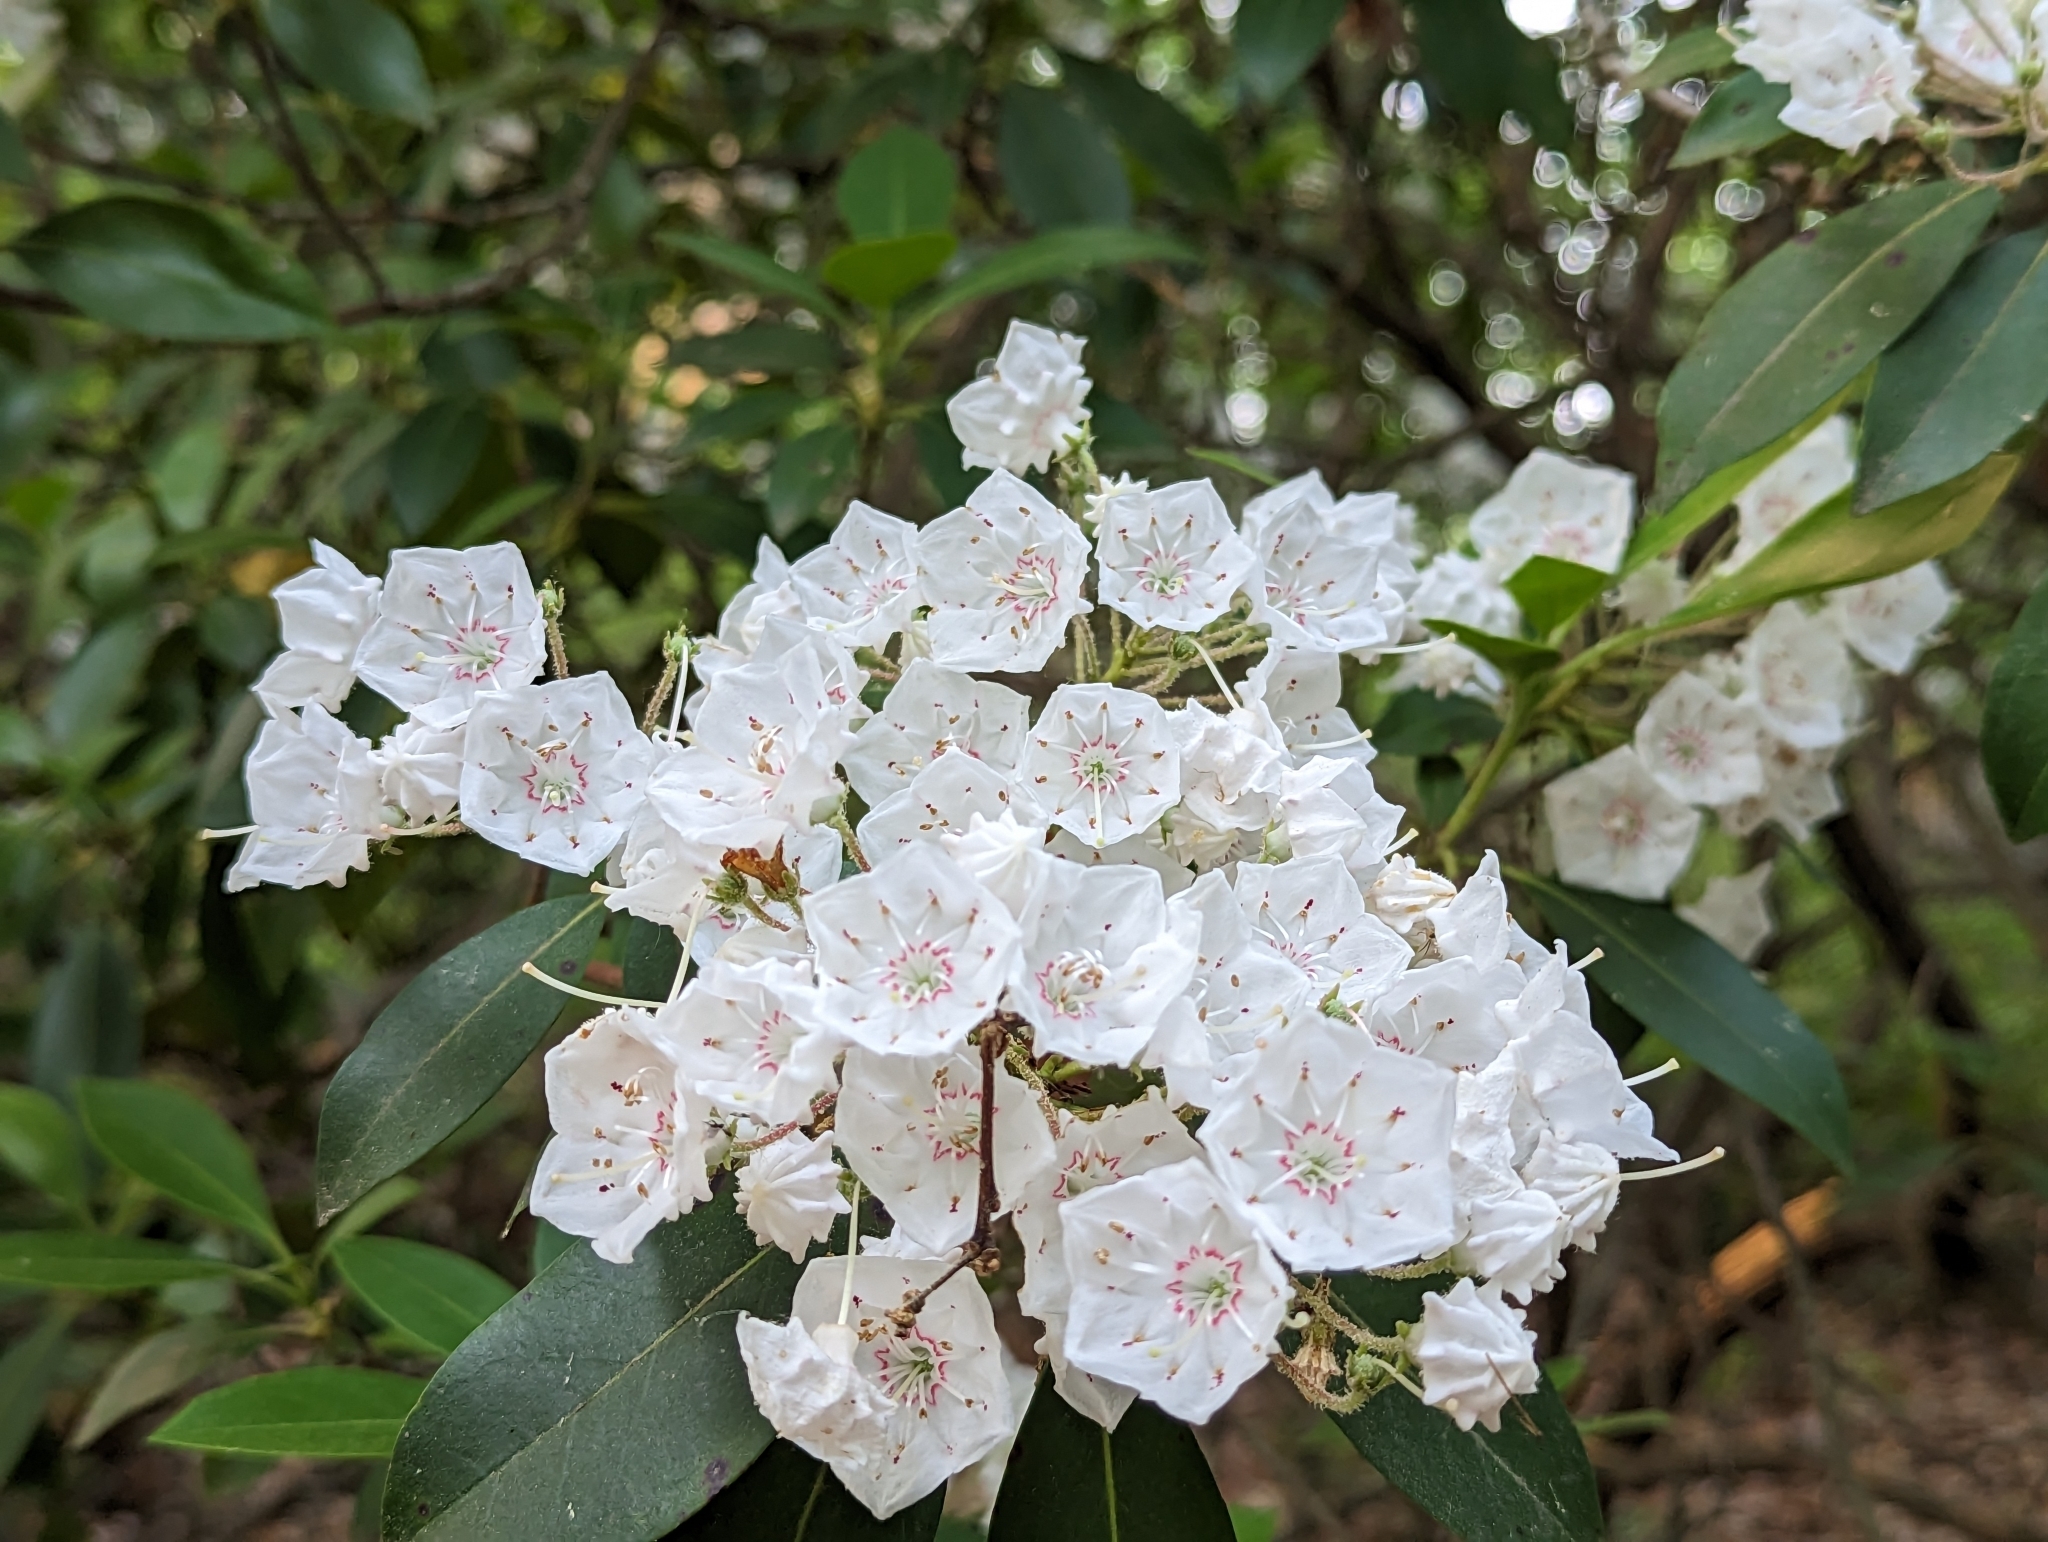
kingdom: Plantae
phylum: Tracheophyta
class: Magnoliopsida
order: Ericales
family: Ericaceae
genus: Kalmia
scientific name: Kalmia latifolia
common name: Mountain-laurel
